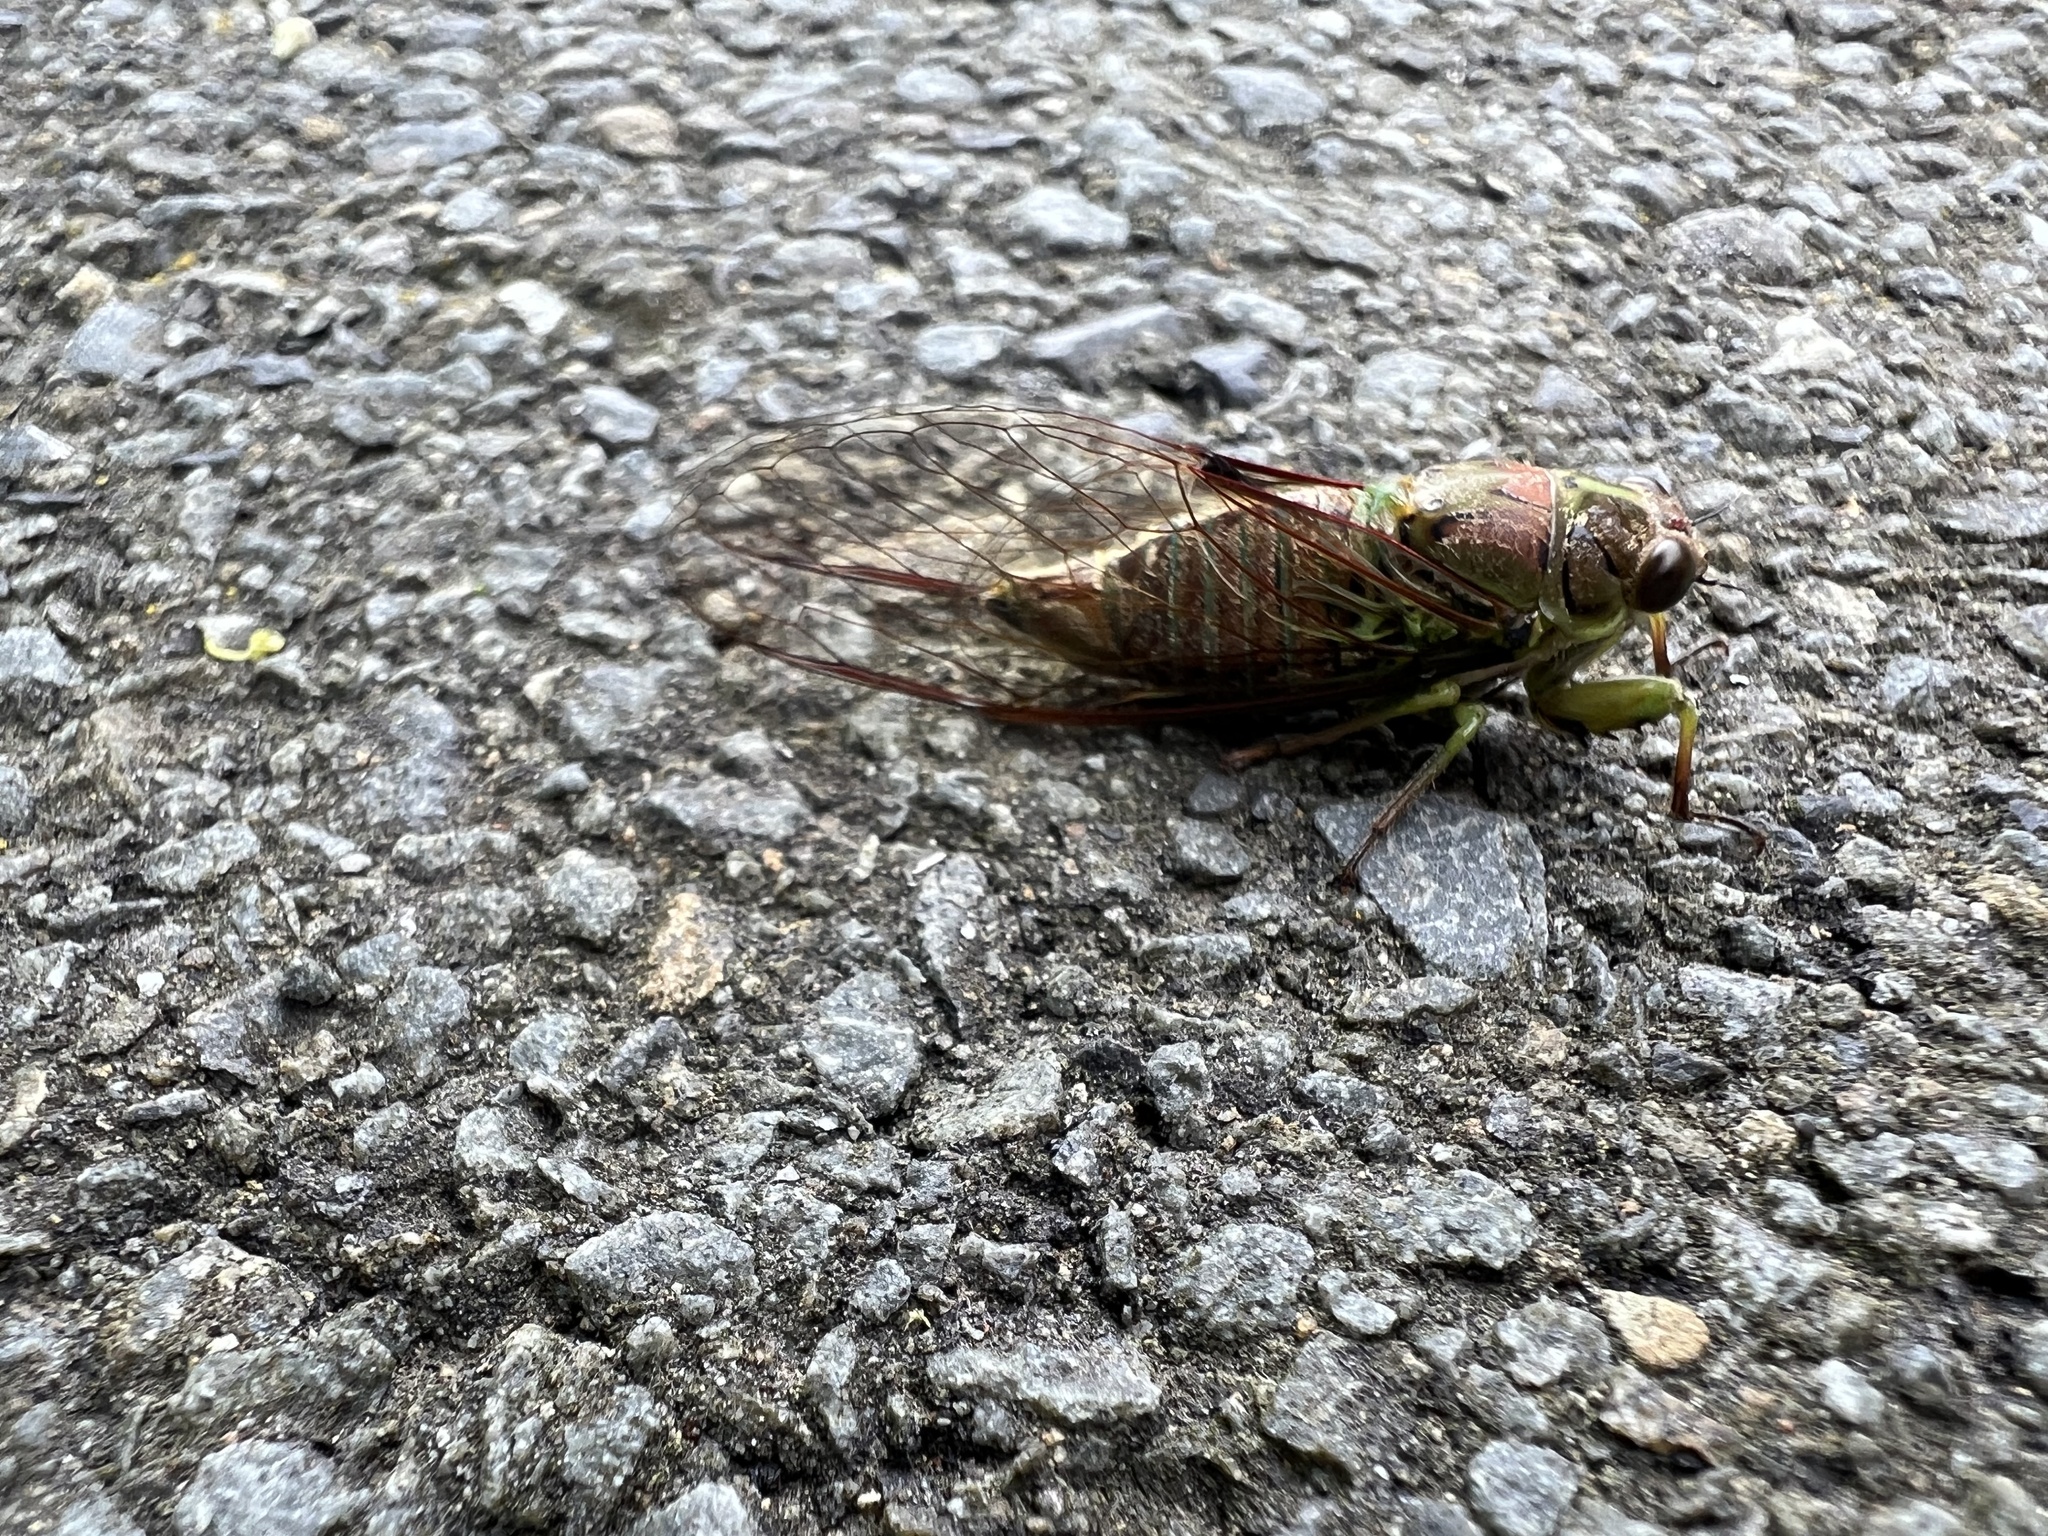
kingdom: Animalia
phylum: Arthropoda
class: Insecta
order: Hemiptera
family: Cicadidae
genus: Kikihia
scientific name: Kikihia scutellaris
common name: Lesser bronze cicada
